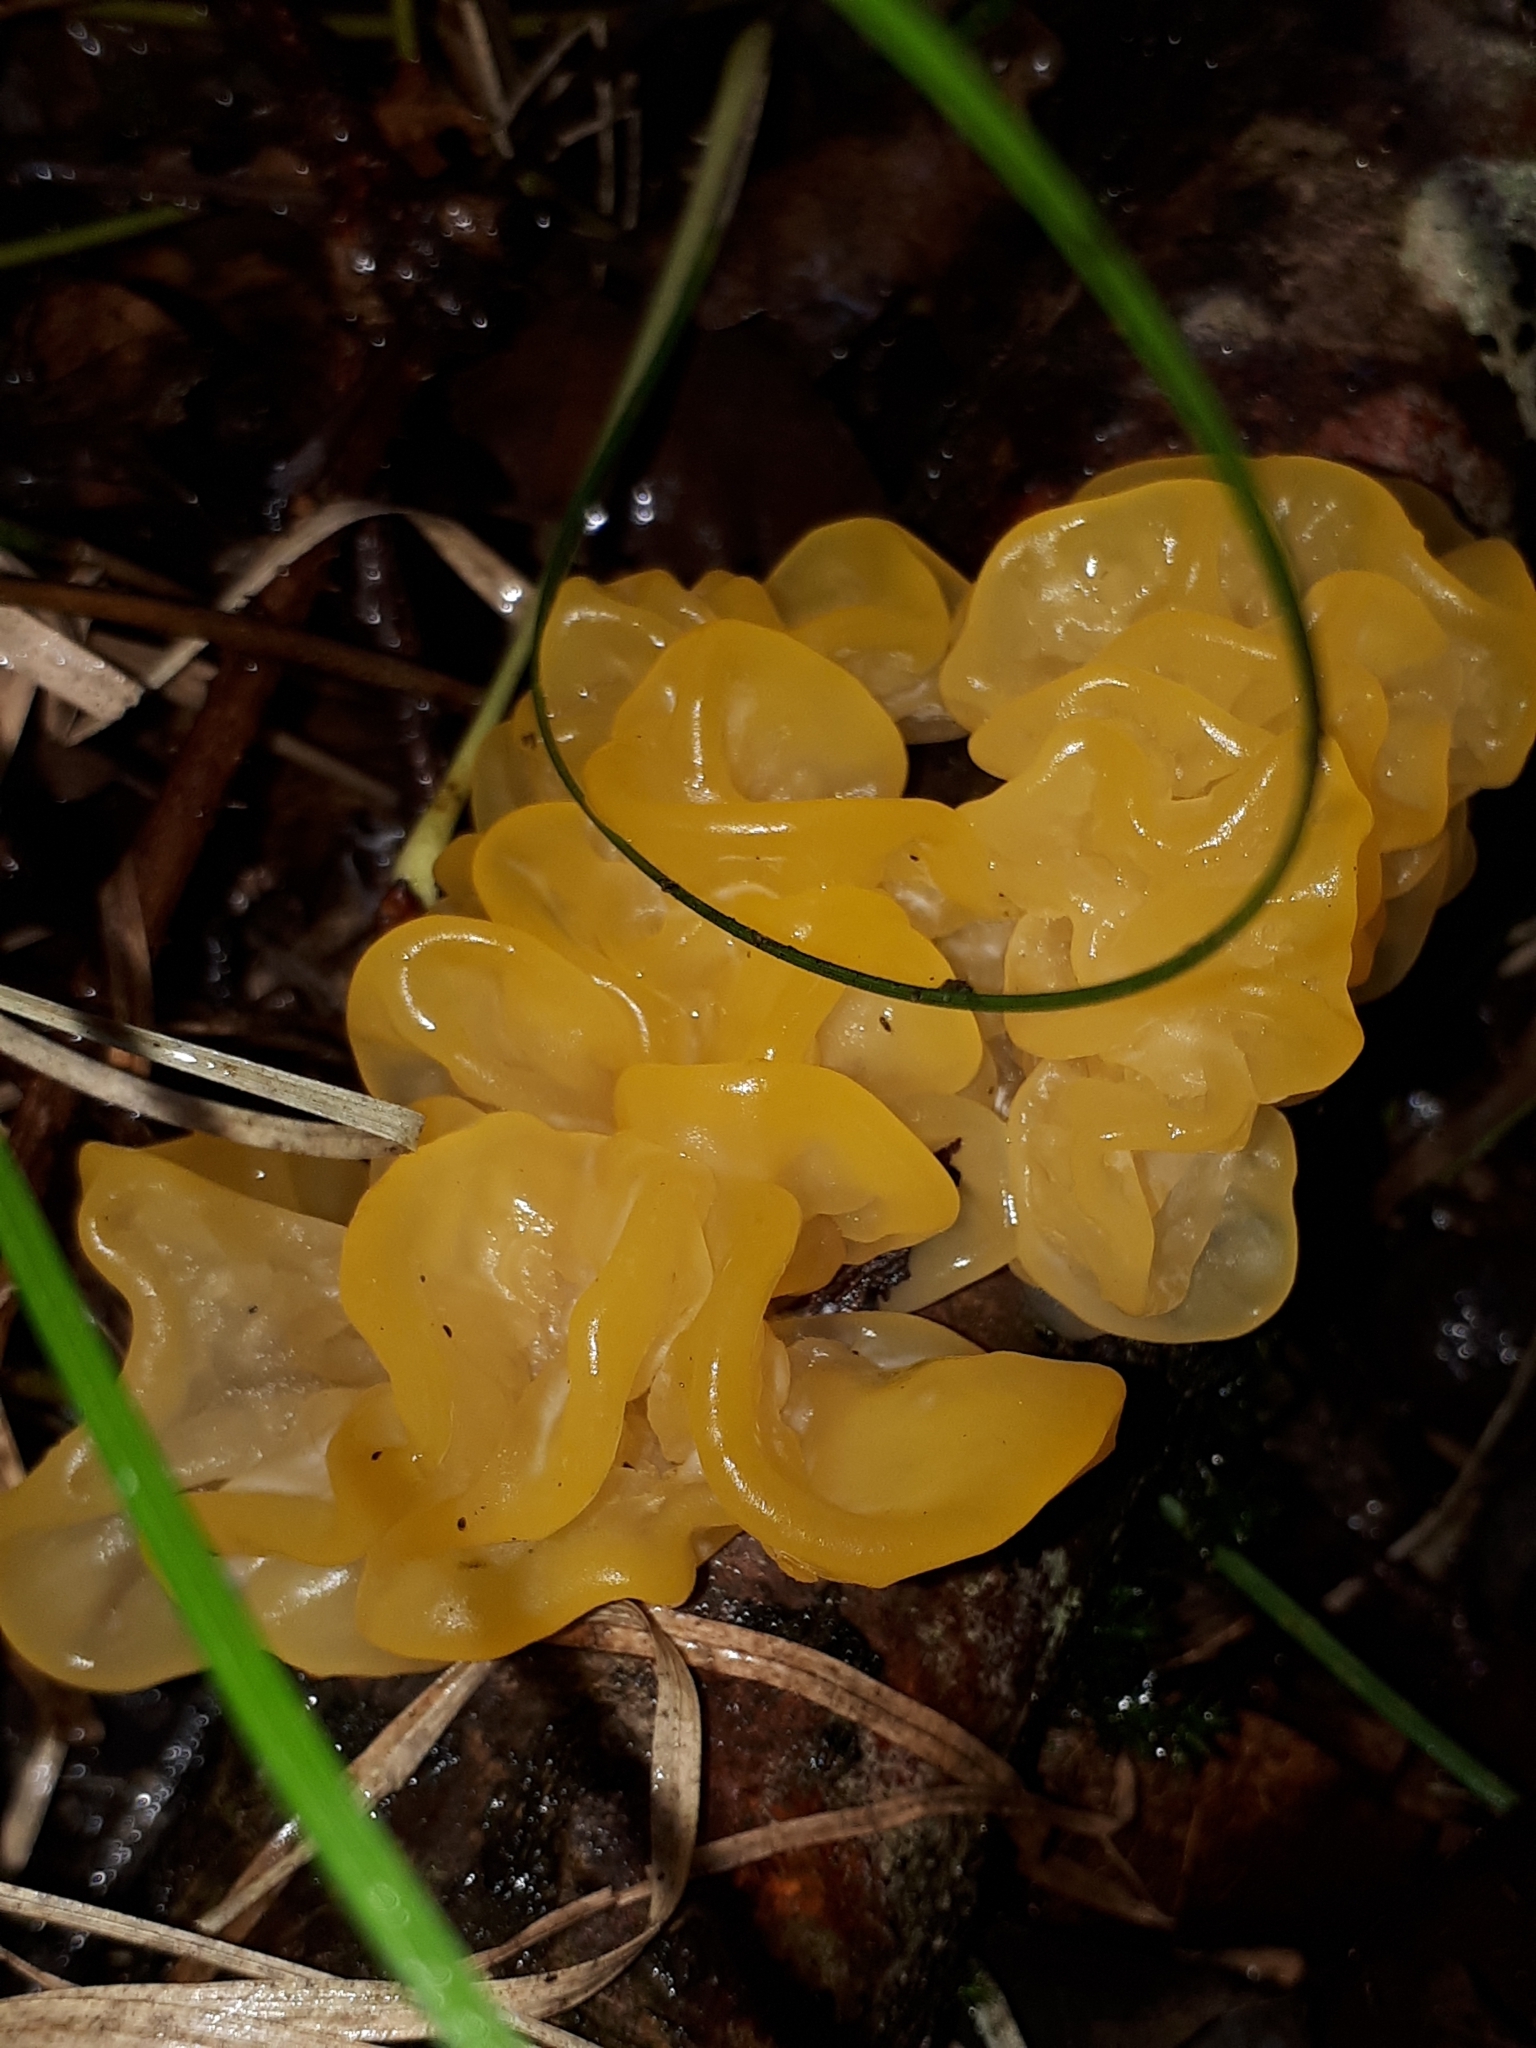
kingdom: Fungi
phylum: Basidiomycota
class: Tremellomycetes
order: Tremellales
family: Tremellaceae
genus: Tremella
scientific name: Tremella mesenterica
